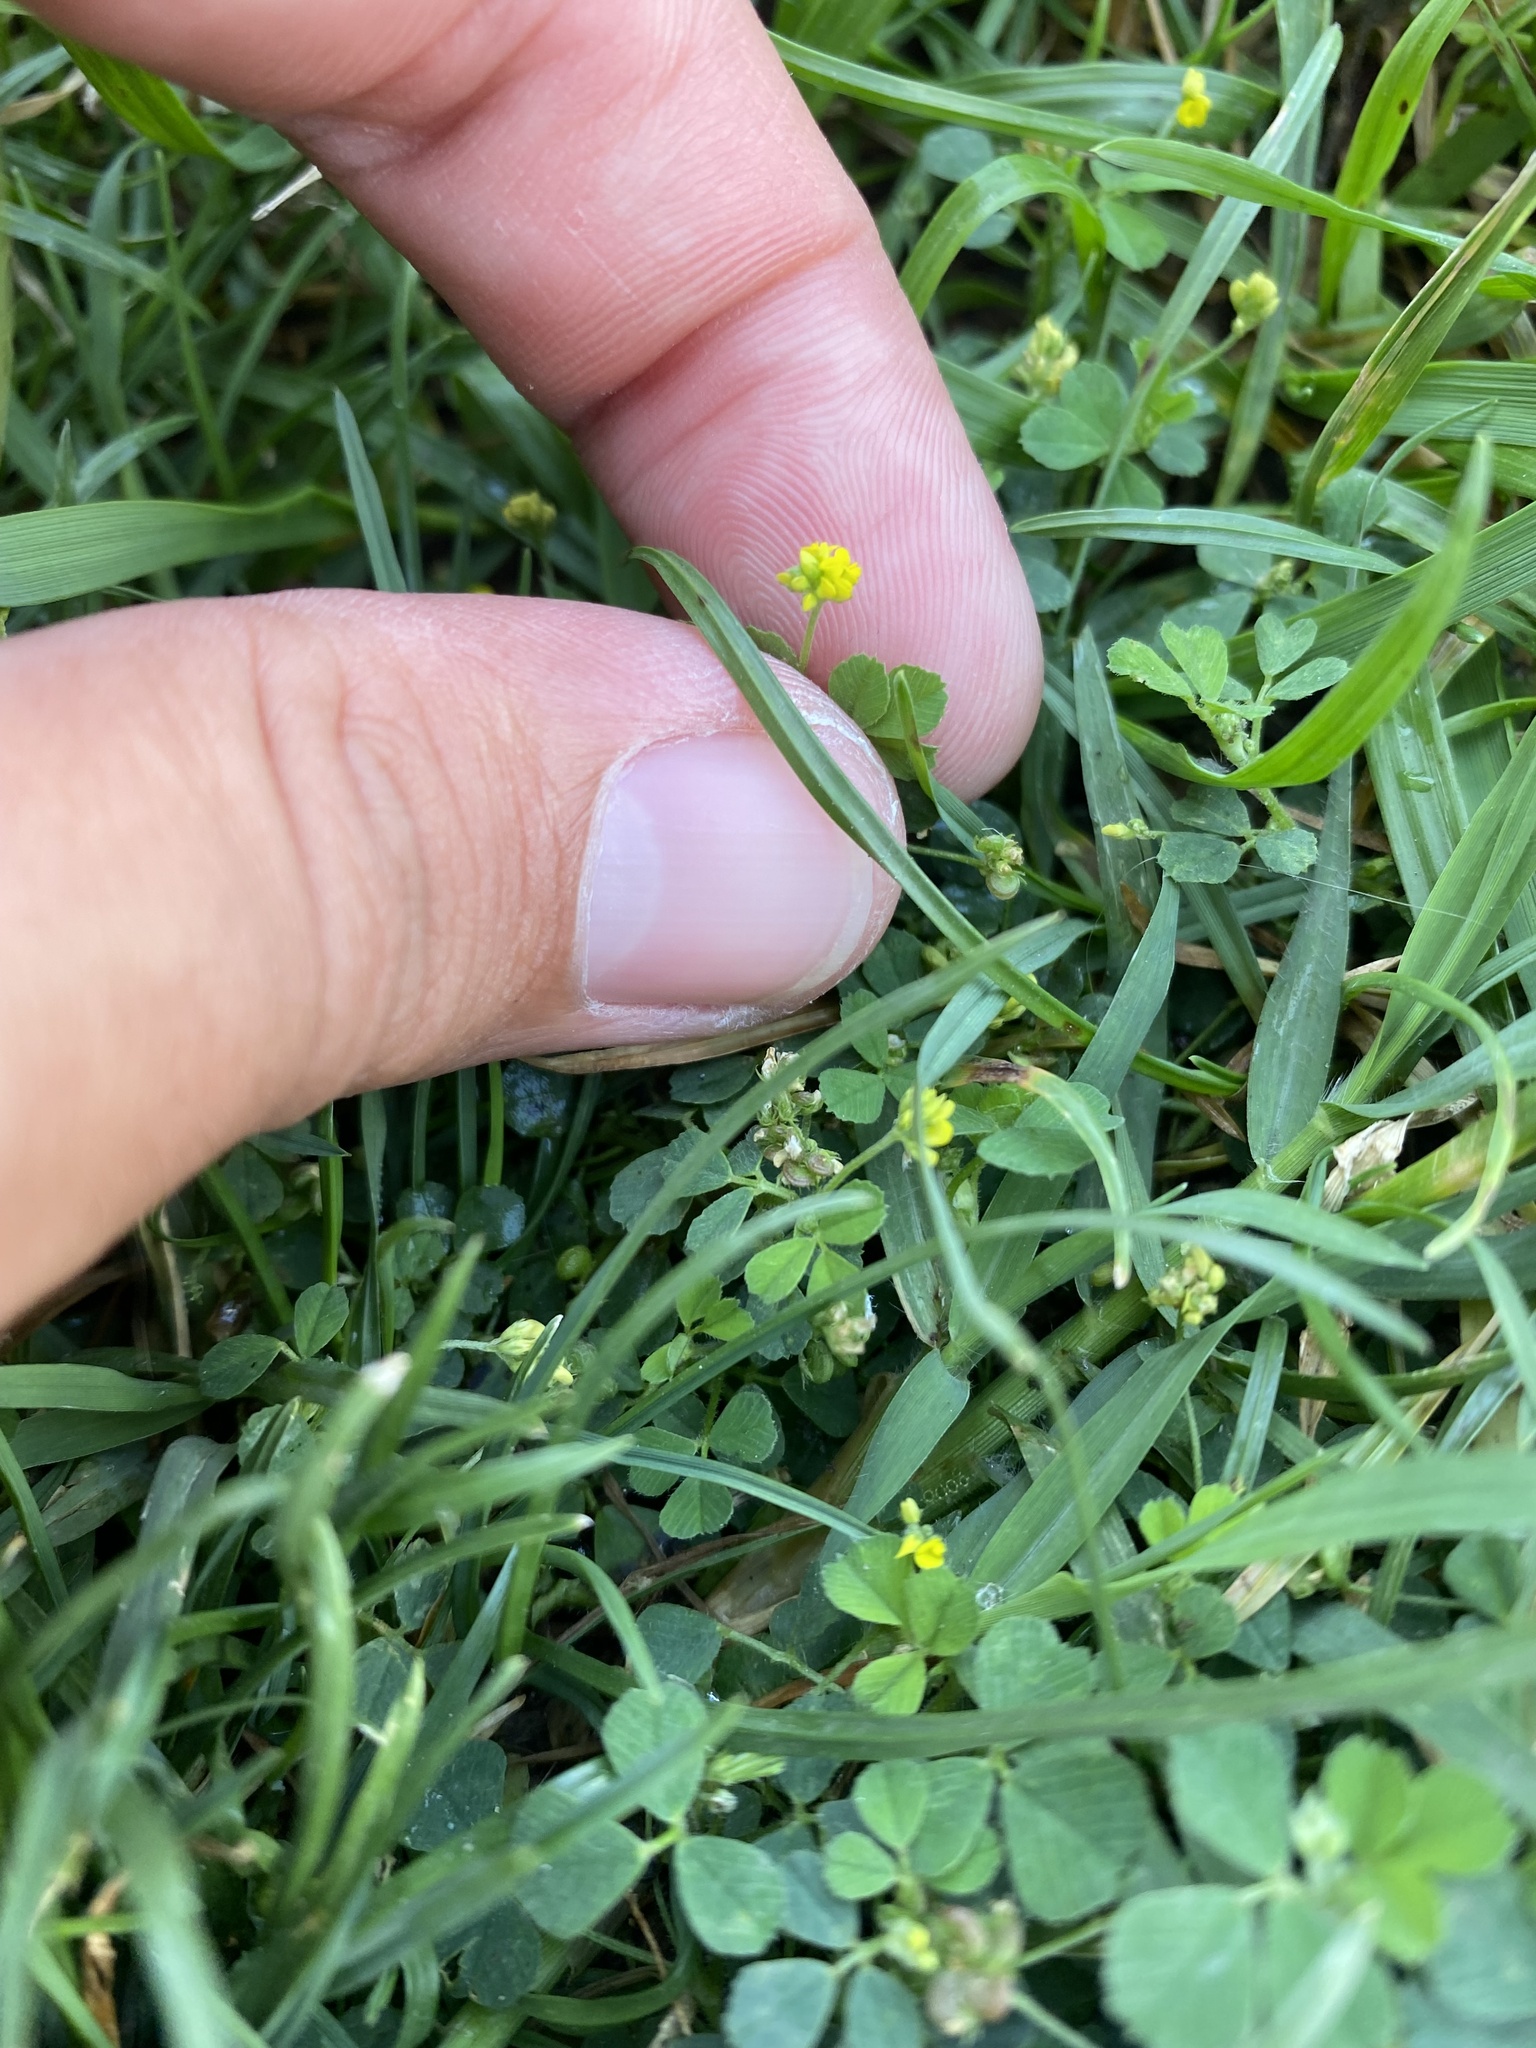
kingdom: Plantae
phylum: Tracheophyta
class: Magnoliopsida
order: Fabales
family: Fabaceae
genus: Medicago
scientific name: Medicago lupulina
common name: Black medick
